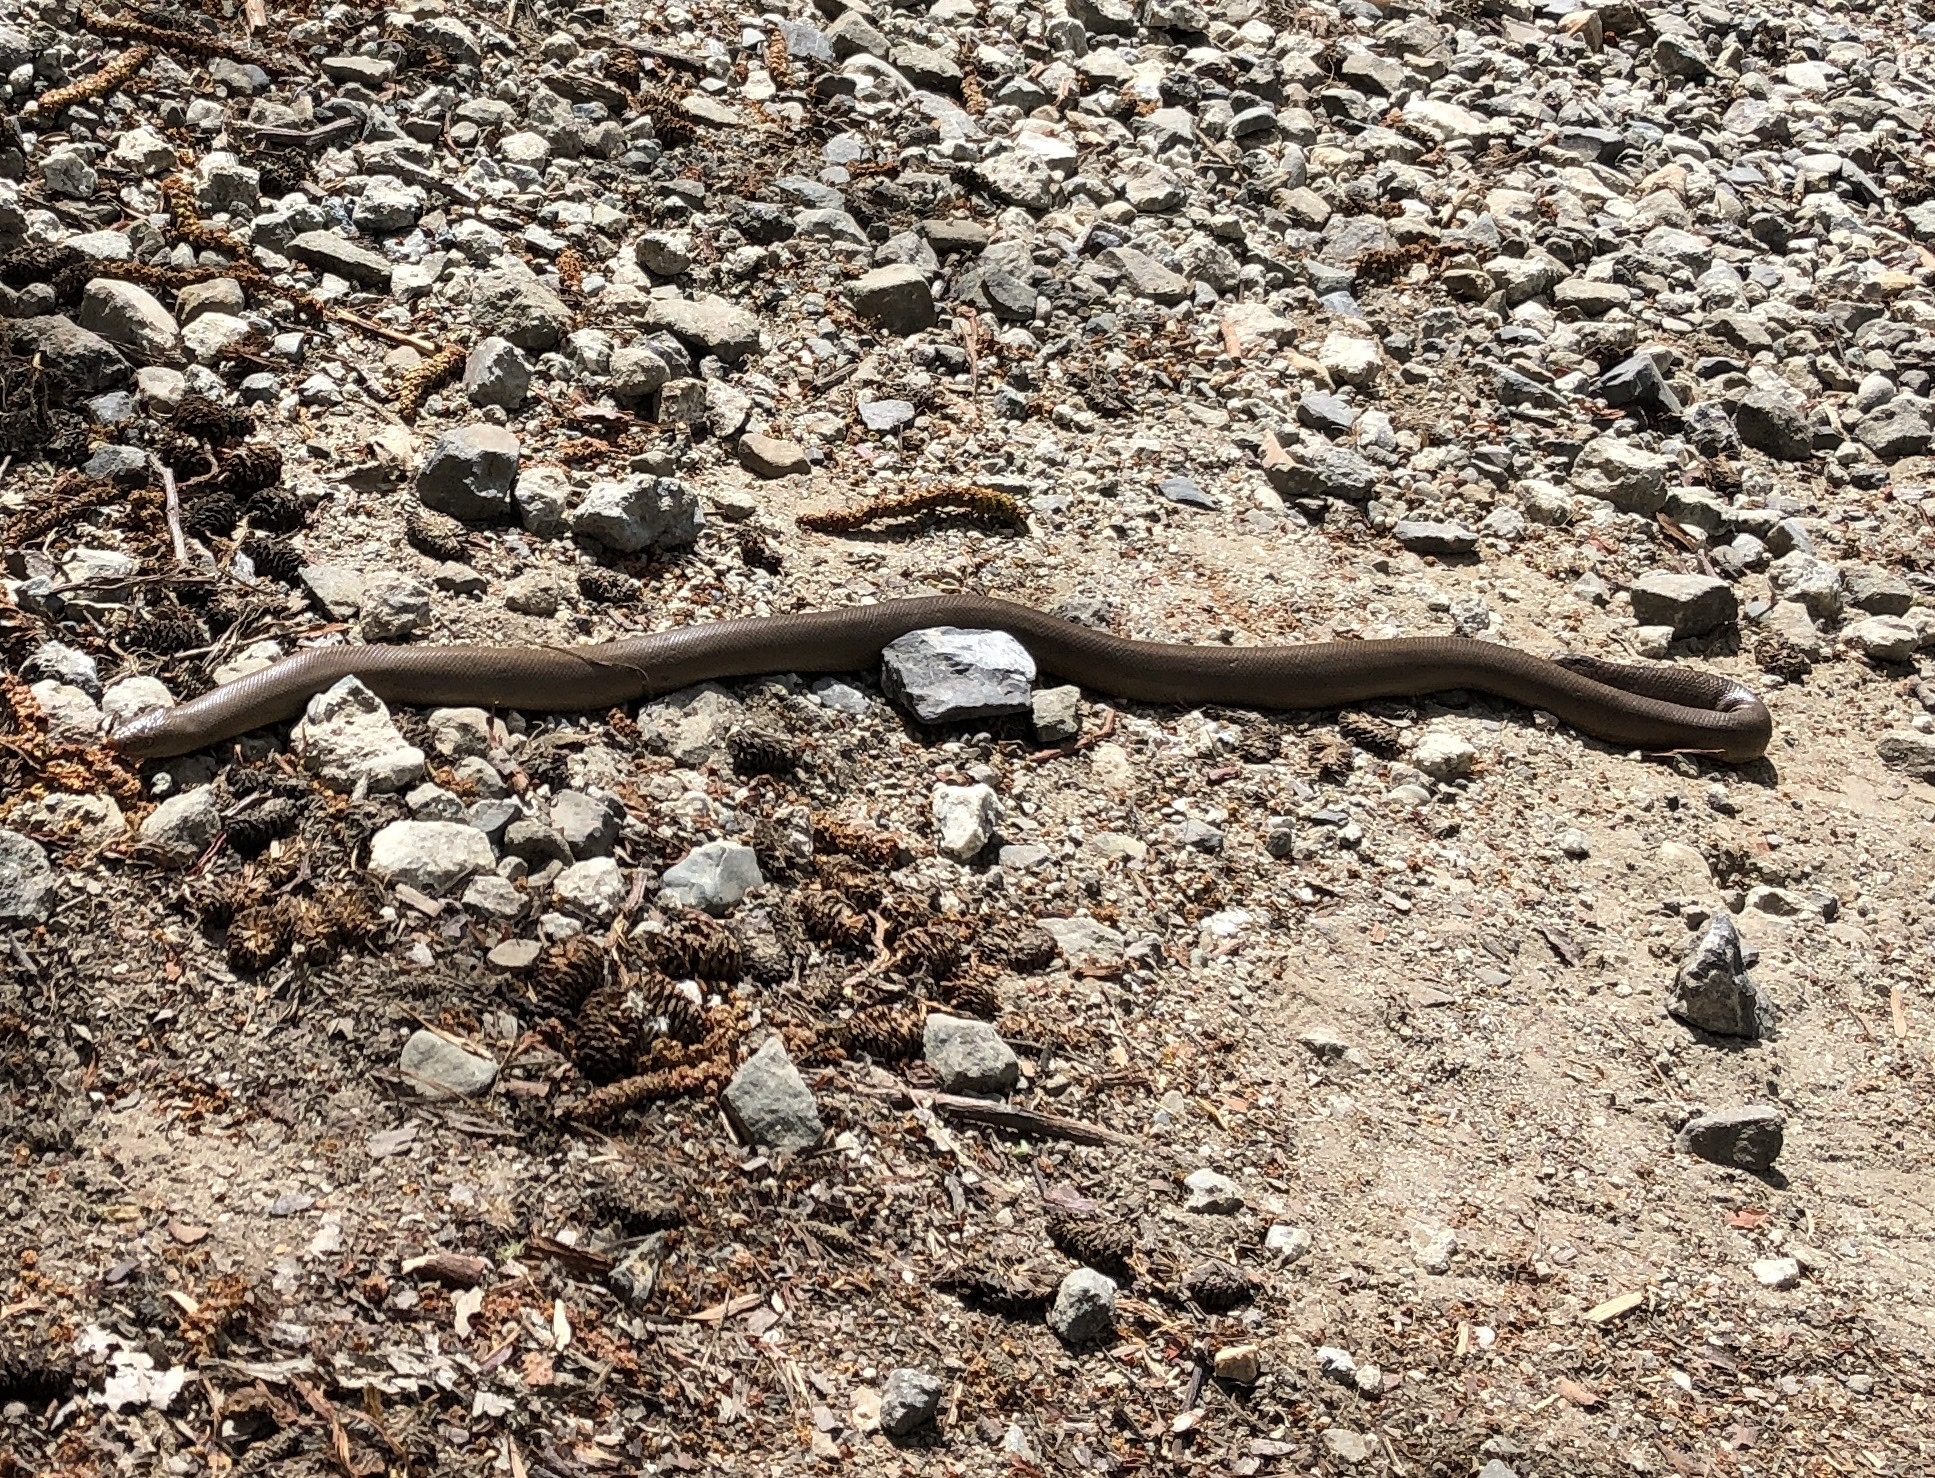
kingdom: Animalia
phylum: Chordata
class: Squamata
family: Boidae
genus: Charina
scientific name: Charina bottae
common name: Northern rubber boa
